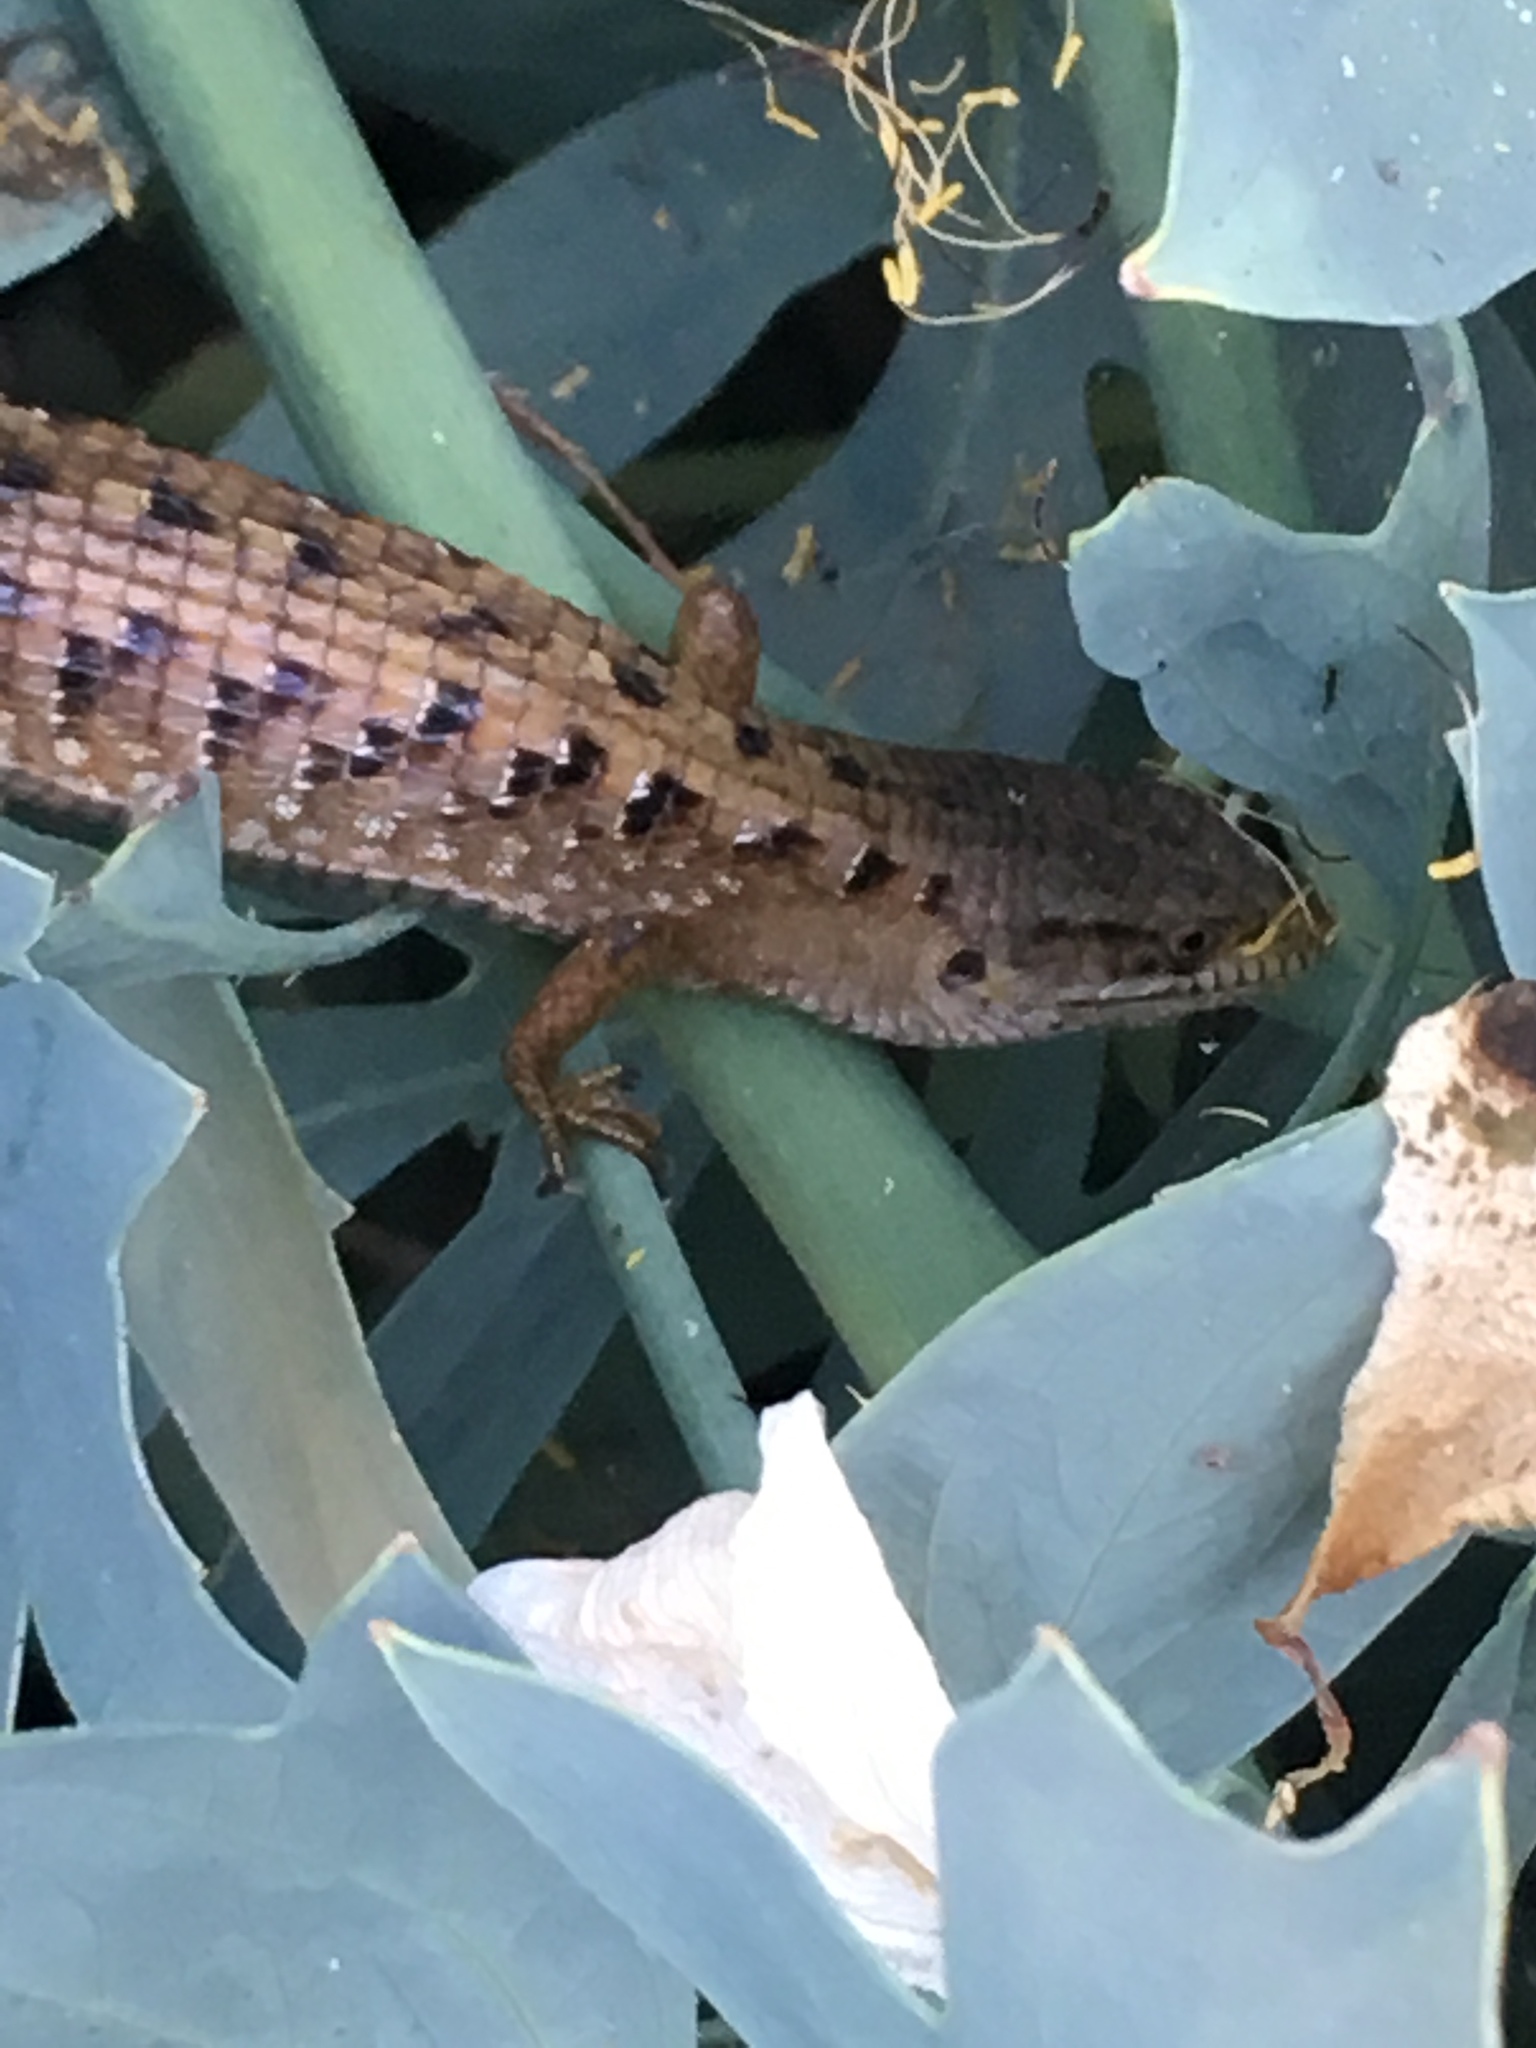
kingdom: Animalia
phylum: Chordata
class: Squamata
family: Anguidae
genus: Elgaria
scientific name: Elgaria multicarinata
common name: Southern alligator lizard
